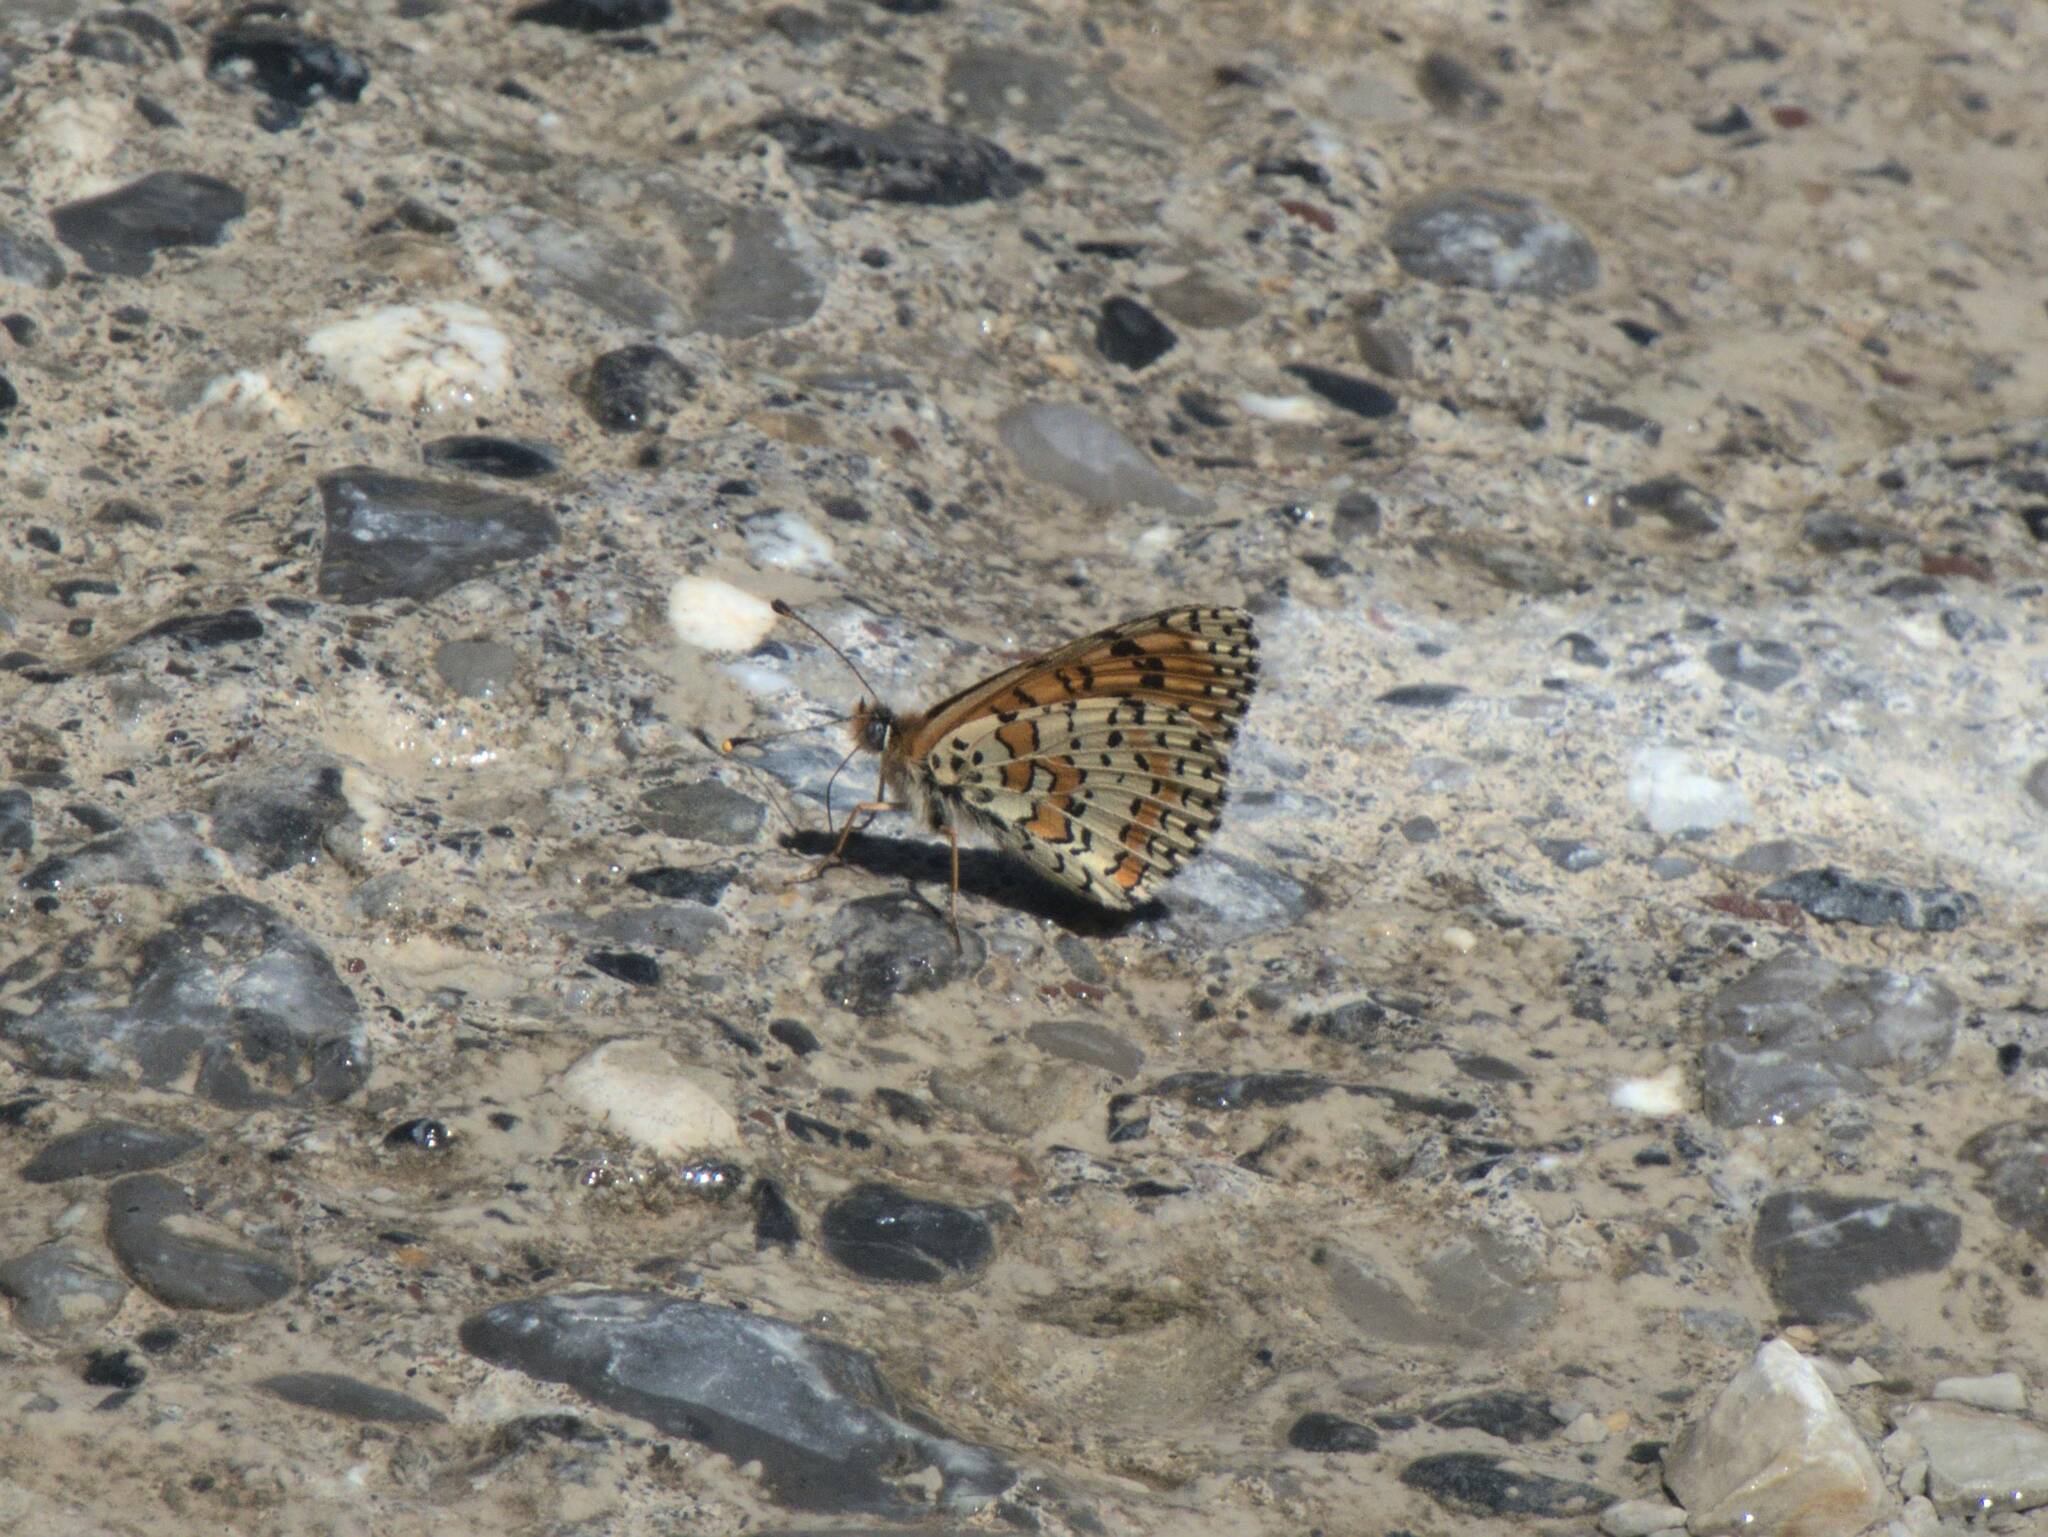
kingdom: Animalia
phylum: Arthropoda
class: Insecta
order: Lepidoptera
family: Nymphalidae
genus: Melitaea
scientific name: Melitaea didyma
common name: Spotted fritillary
